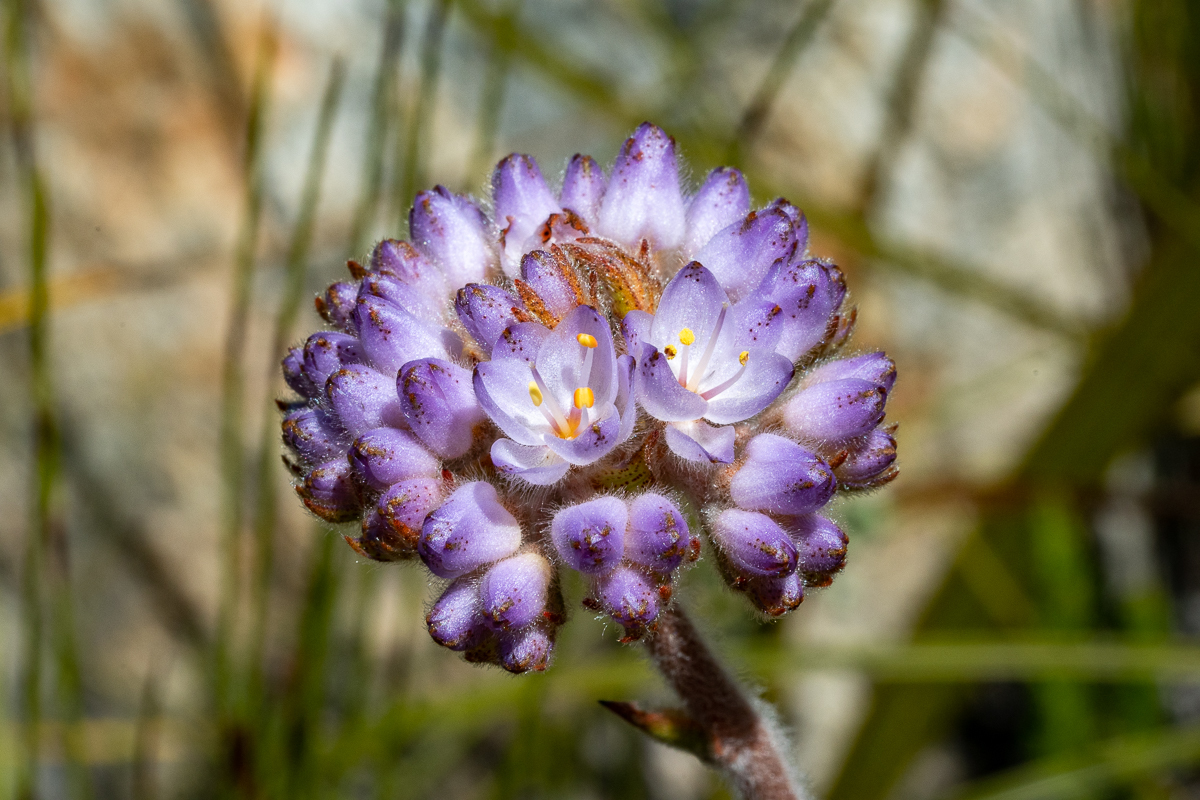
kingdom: Plantae
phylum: Tracheophyta
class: Liliopsida
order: Commelinales
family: Haemodoraceae
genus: Dilatris
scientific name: Dilatris pillansii
